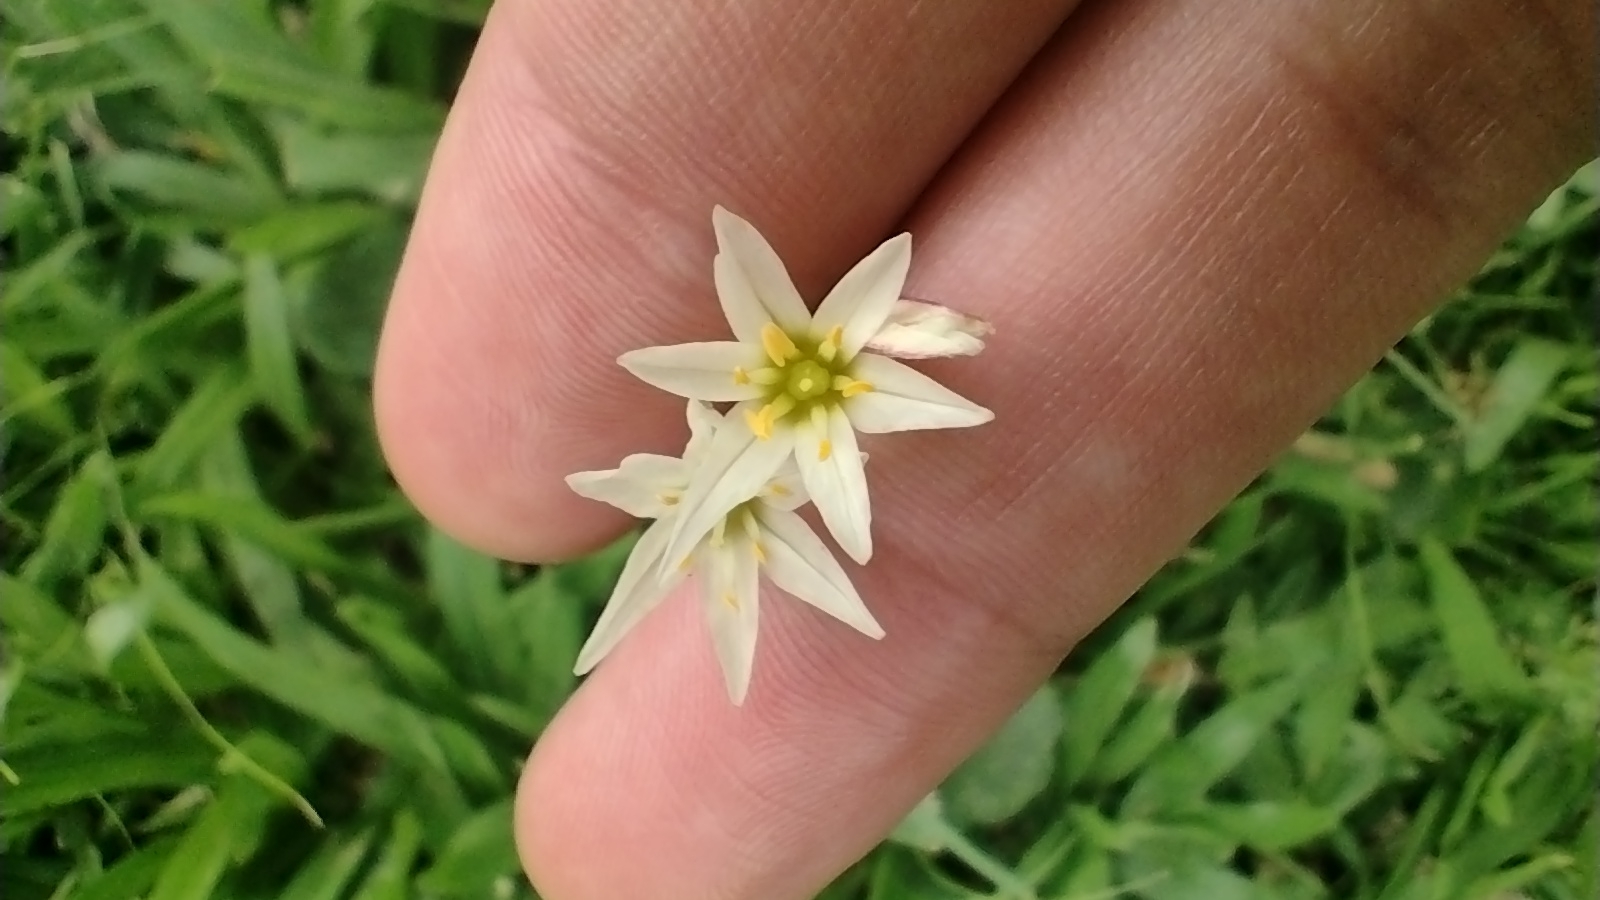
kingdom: Plantae
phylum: Tracheophyta
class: Liliopsida
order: Asparagales
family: Amaryllidaceae
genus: Nothoscordum
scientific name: Nothoscordum bonariense
